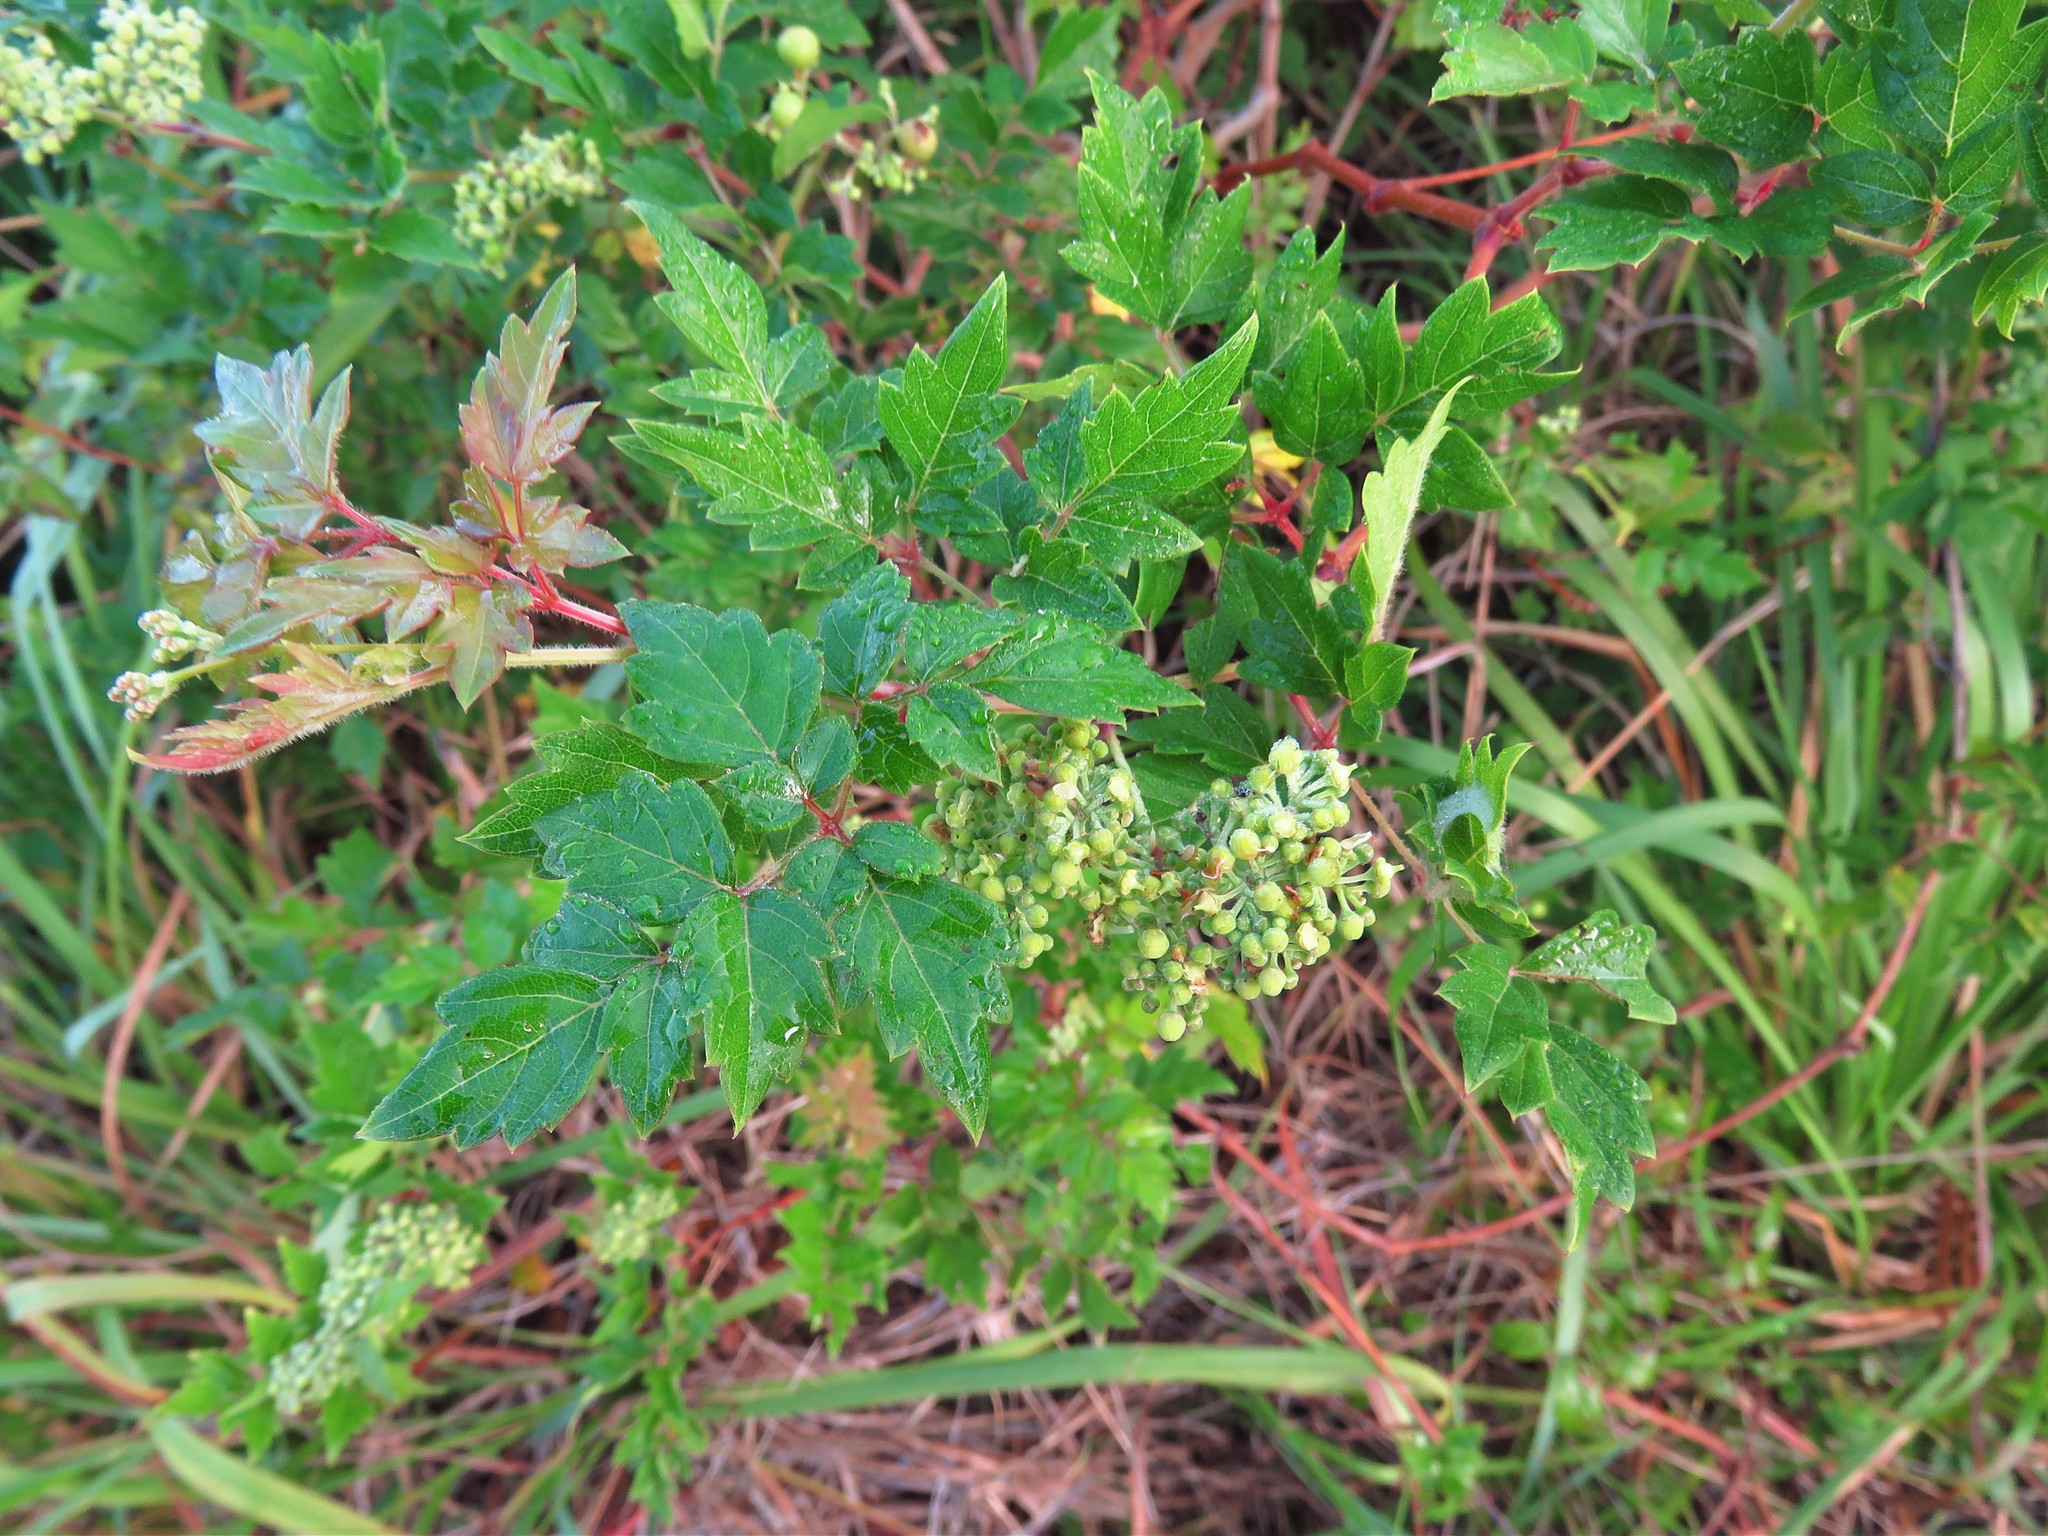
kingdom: Plantae
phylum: Tracheophyta
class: Magnoliopsida
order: Vitales
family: Vitaceae
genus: Nekemias
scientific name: Nekemias arborea
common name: Peppervine
